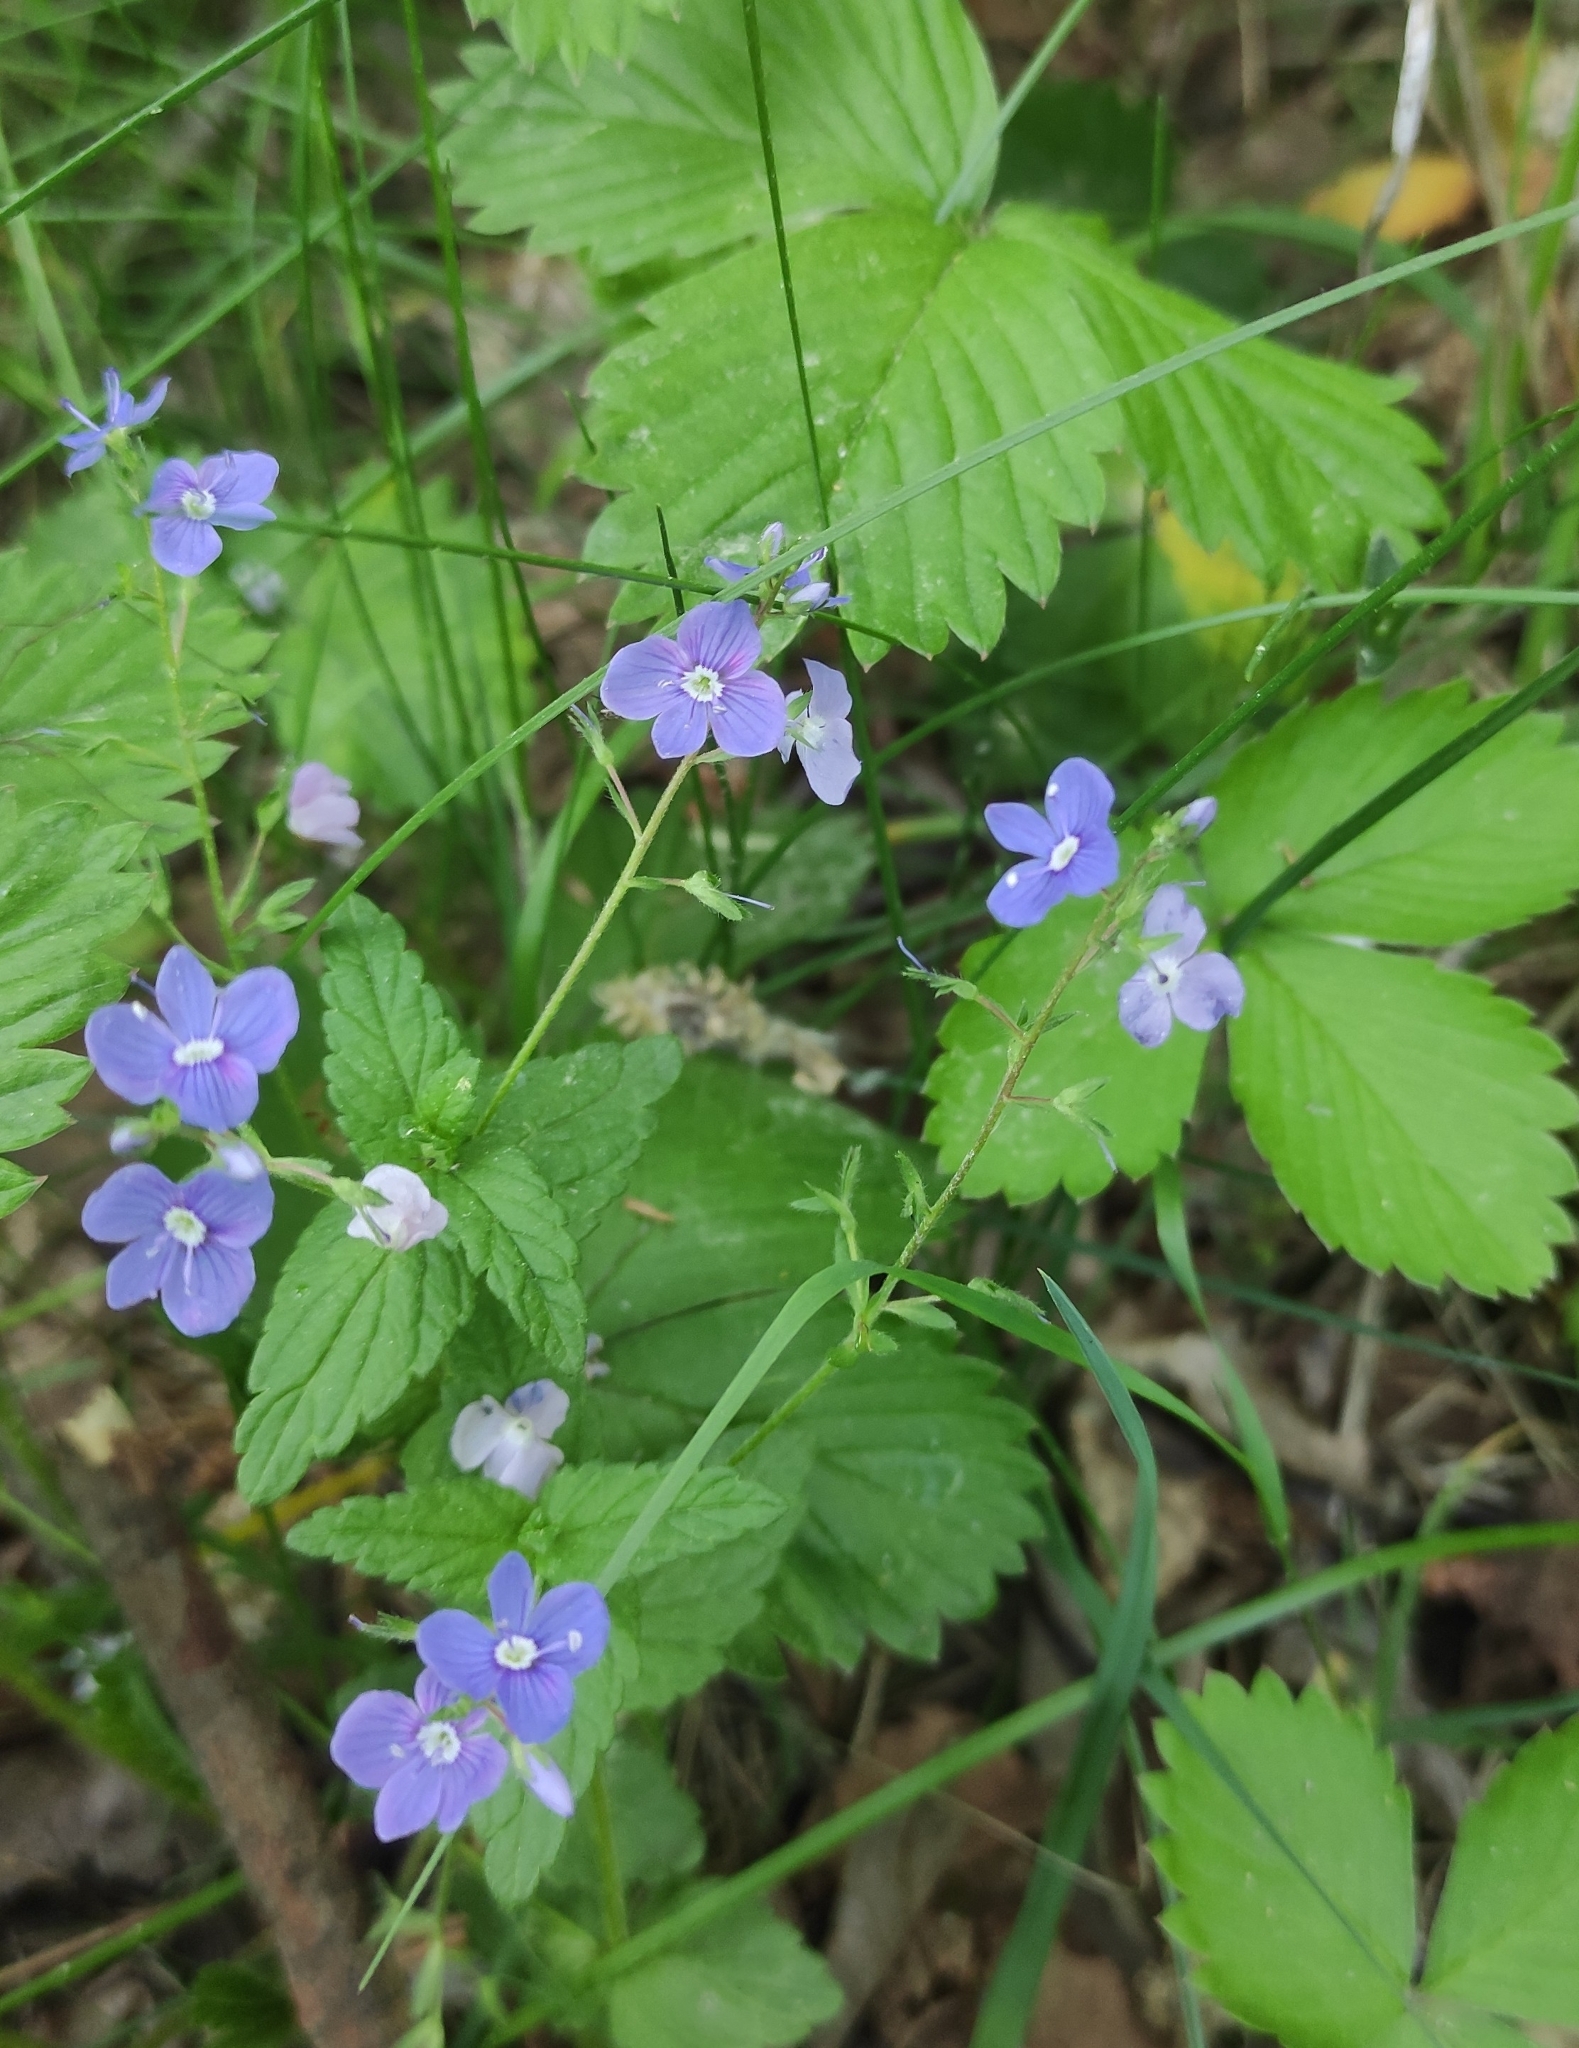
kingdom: Plantae
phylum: Tracheophyta
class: Magnoliopsida
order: Lamiales
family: Plantaginaceae
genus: Veronica
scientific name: Veronica chamaedrys
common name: Germander speedwell
